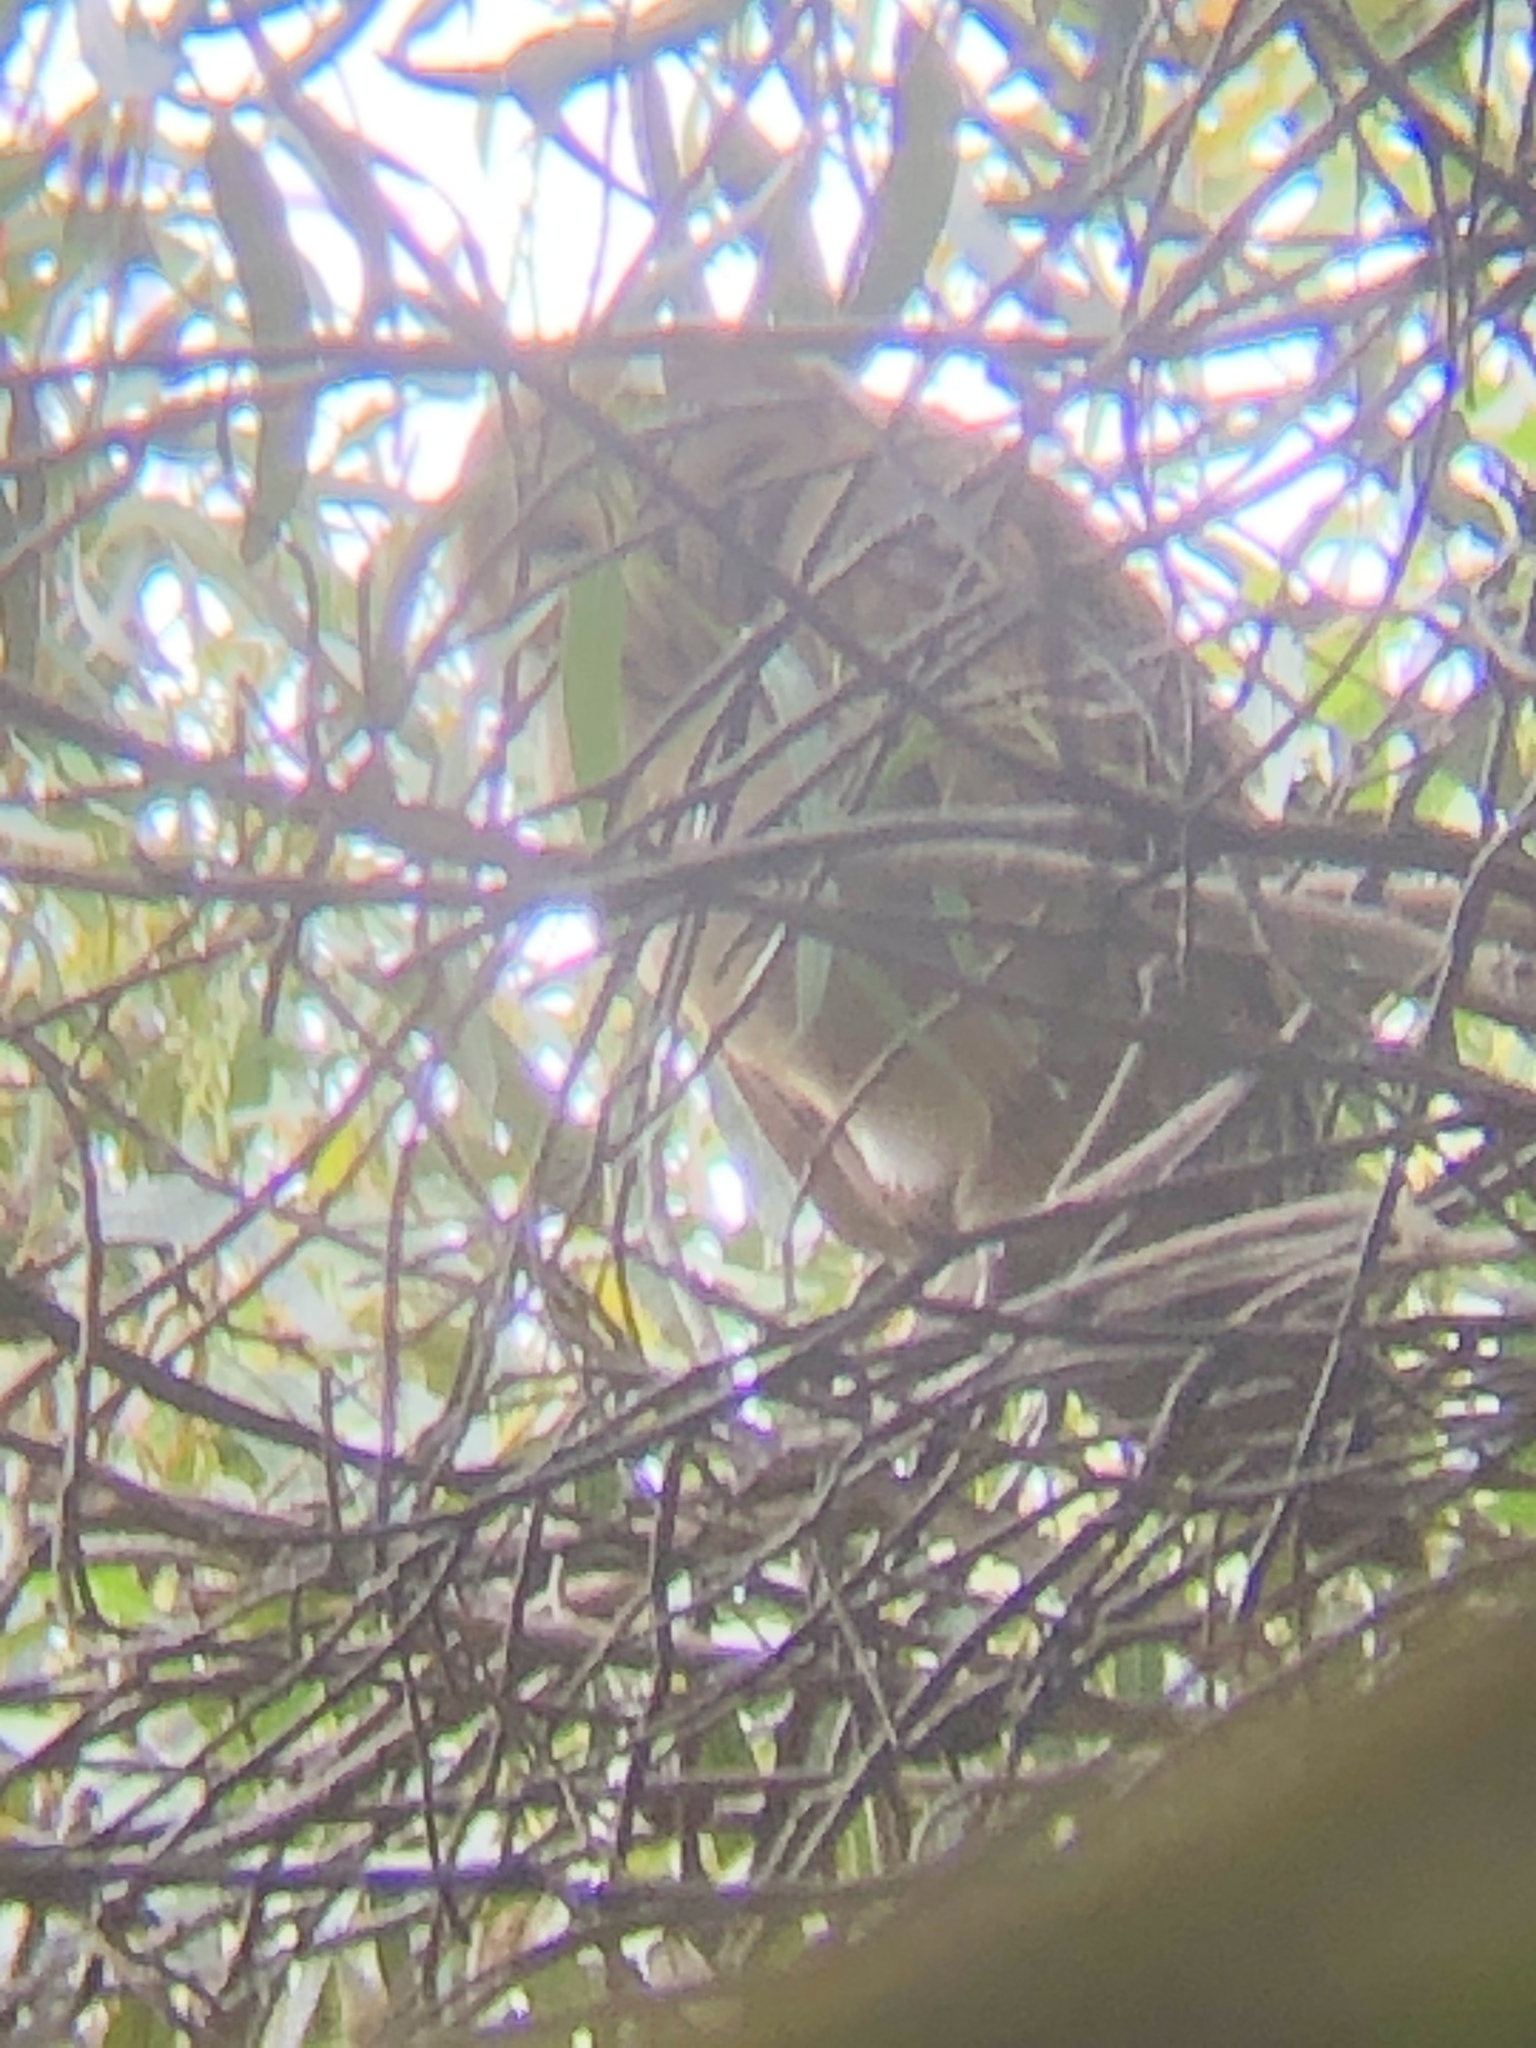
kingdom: Animalia
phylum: Chordata
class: Aves
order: Strigiformes
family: Tytonidae
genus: Tyto
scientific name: Tyto alba
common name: Barn owl
